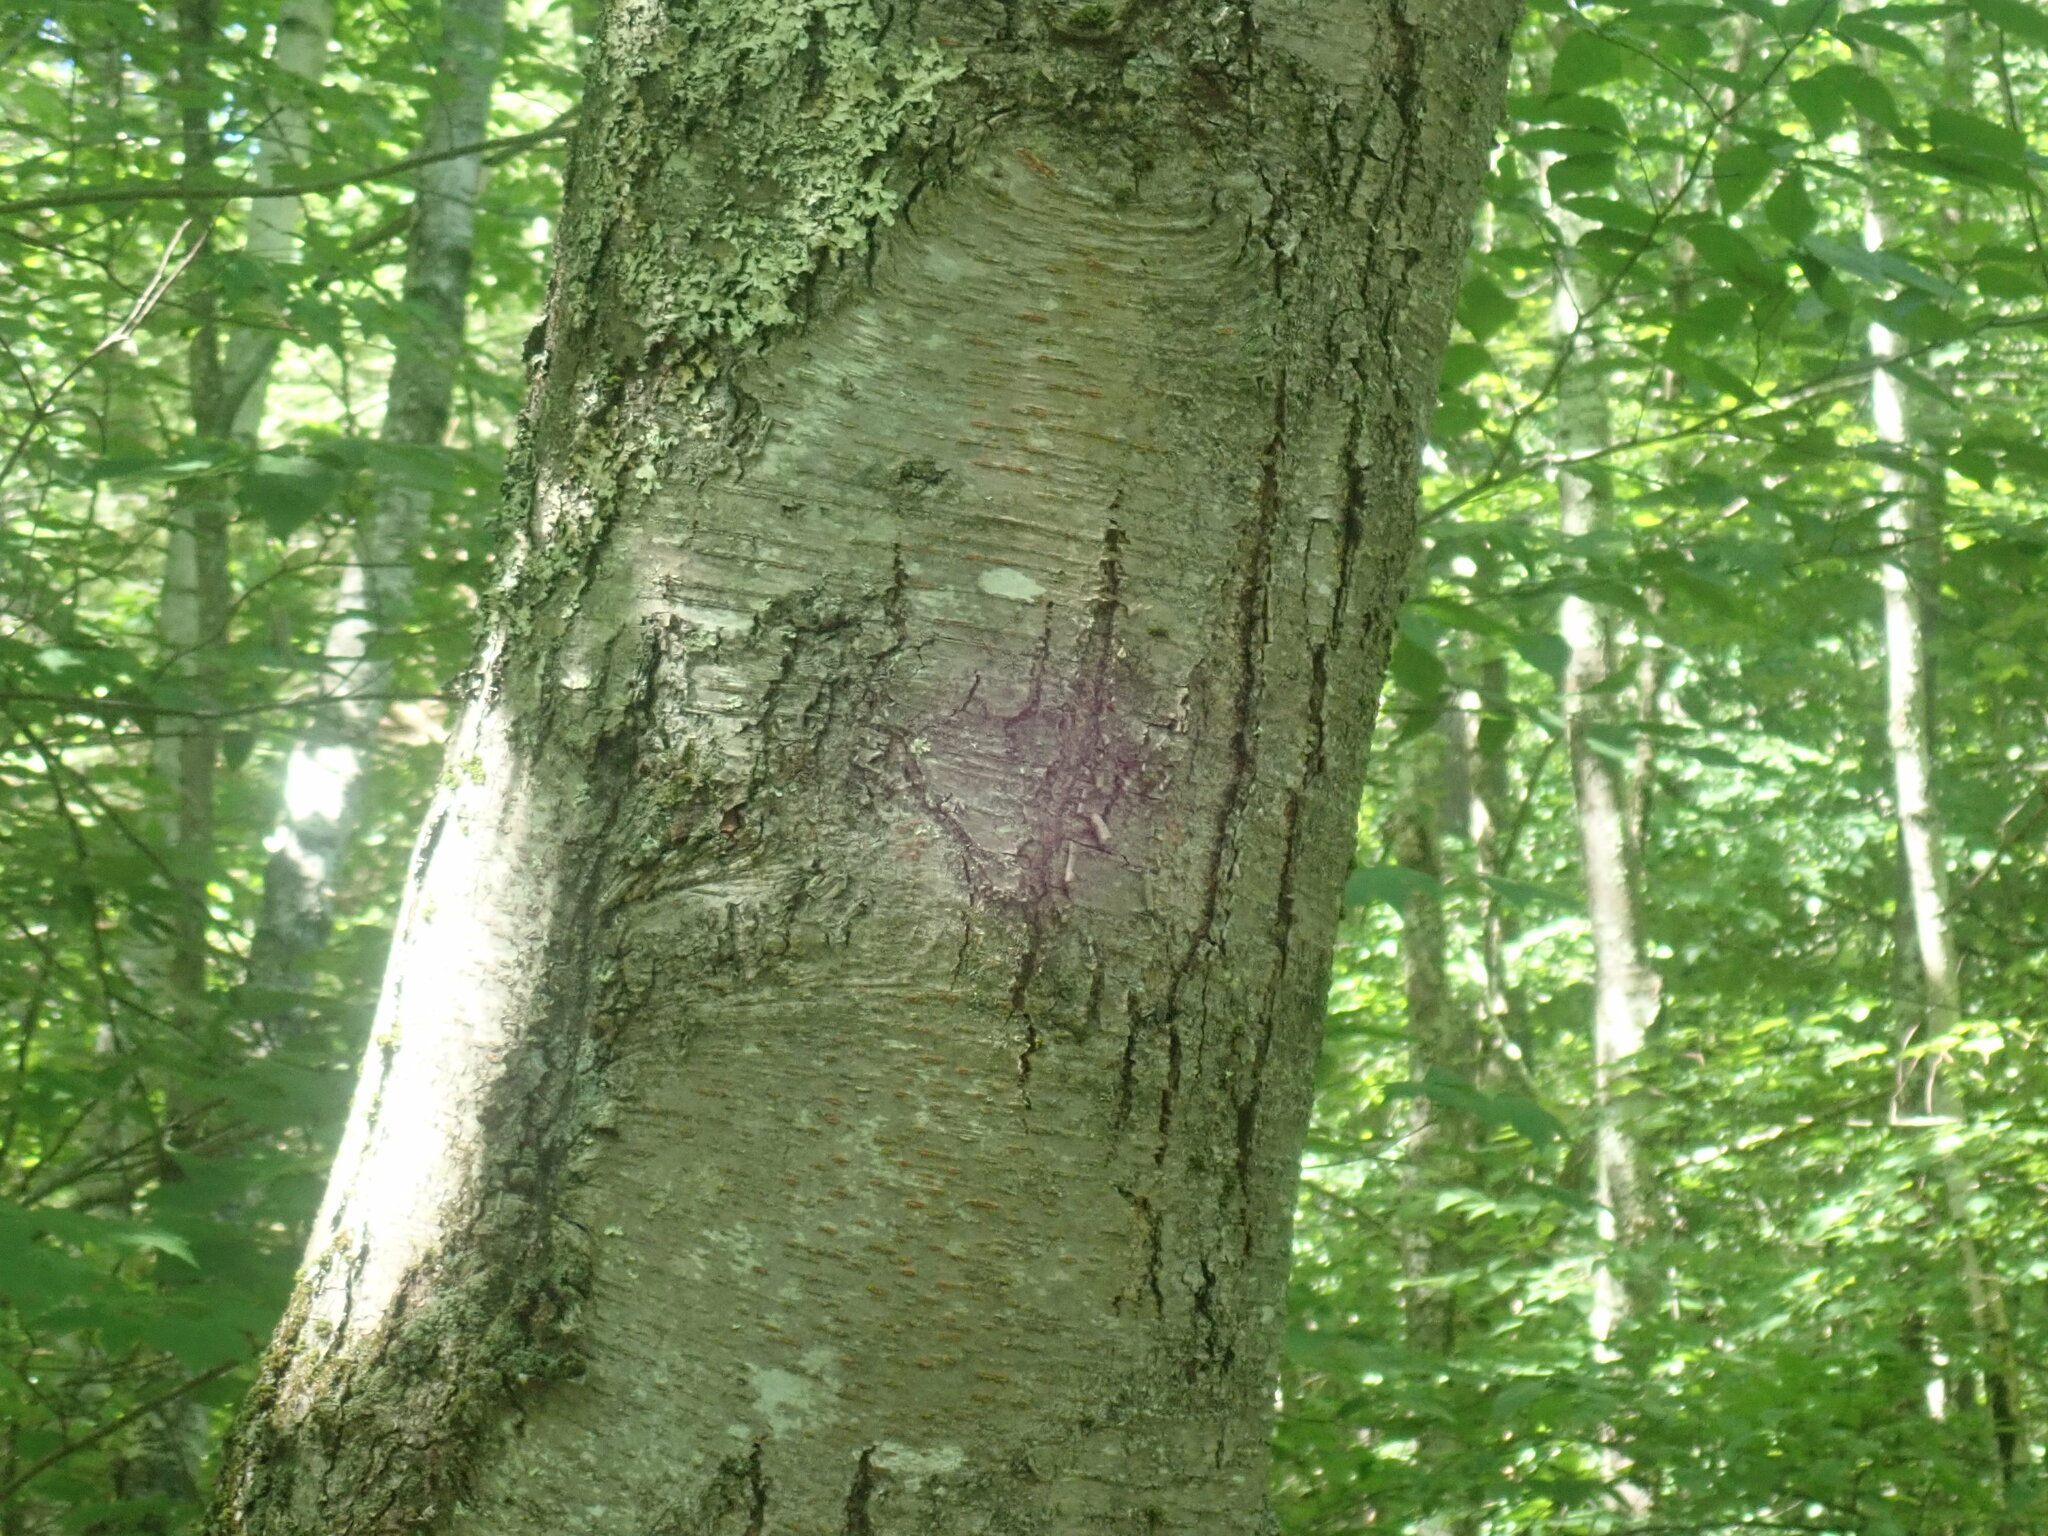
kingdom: Plantae
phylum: Tracheophyta
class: Magnoliopsida
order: Fagales
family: Betulaceae
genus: Betula
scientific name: Betula lenta
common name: Black birch
